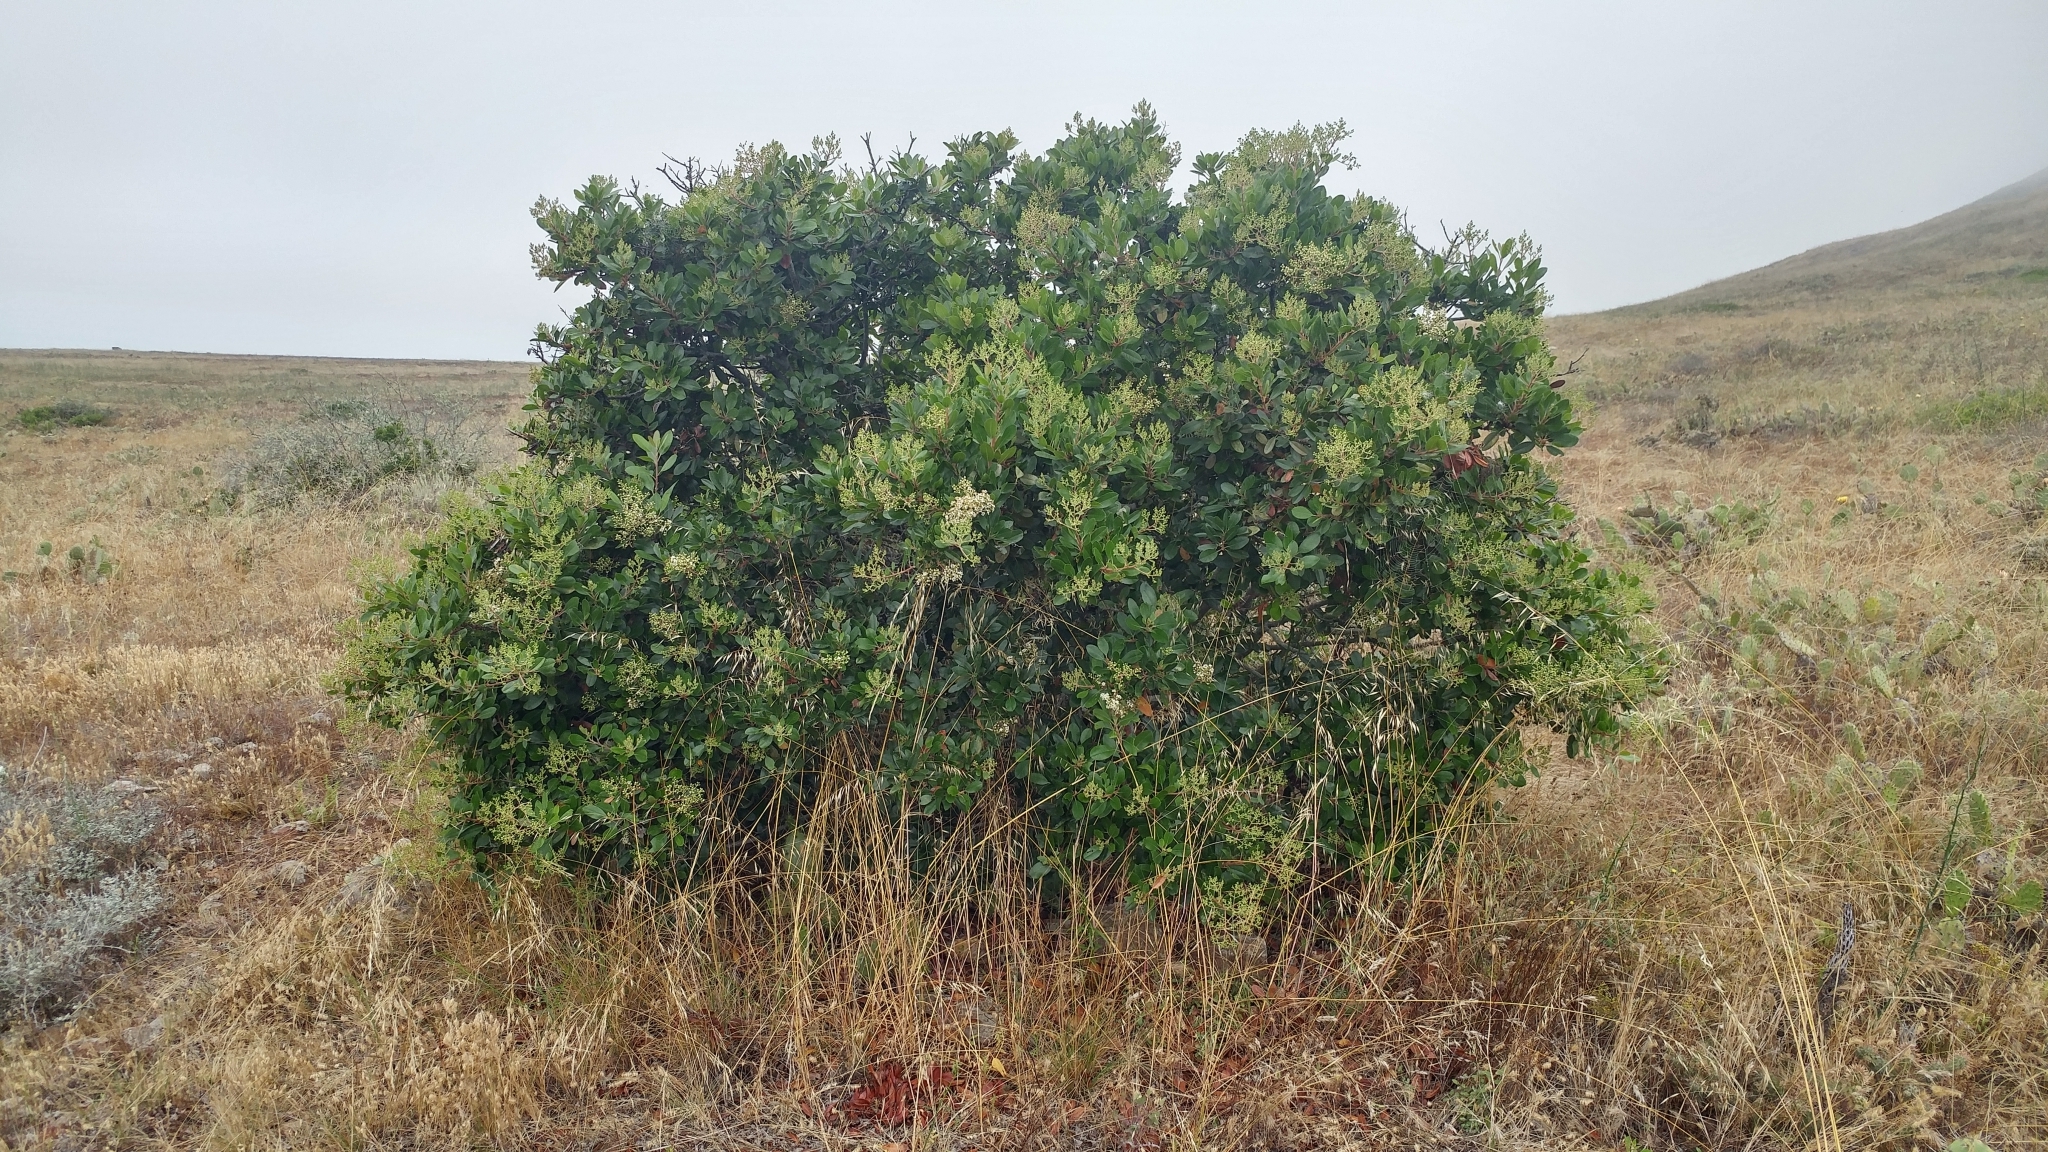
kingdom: Plantae
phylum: Tracheophyta
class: Magnoliopsida
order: Rosales
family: Rosaceae
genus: Heteromeles
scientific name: Heteromeles arbutifolia
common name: California-holly
